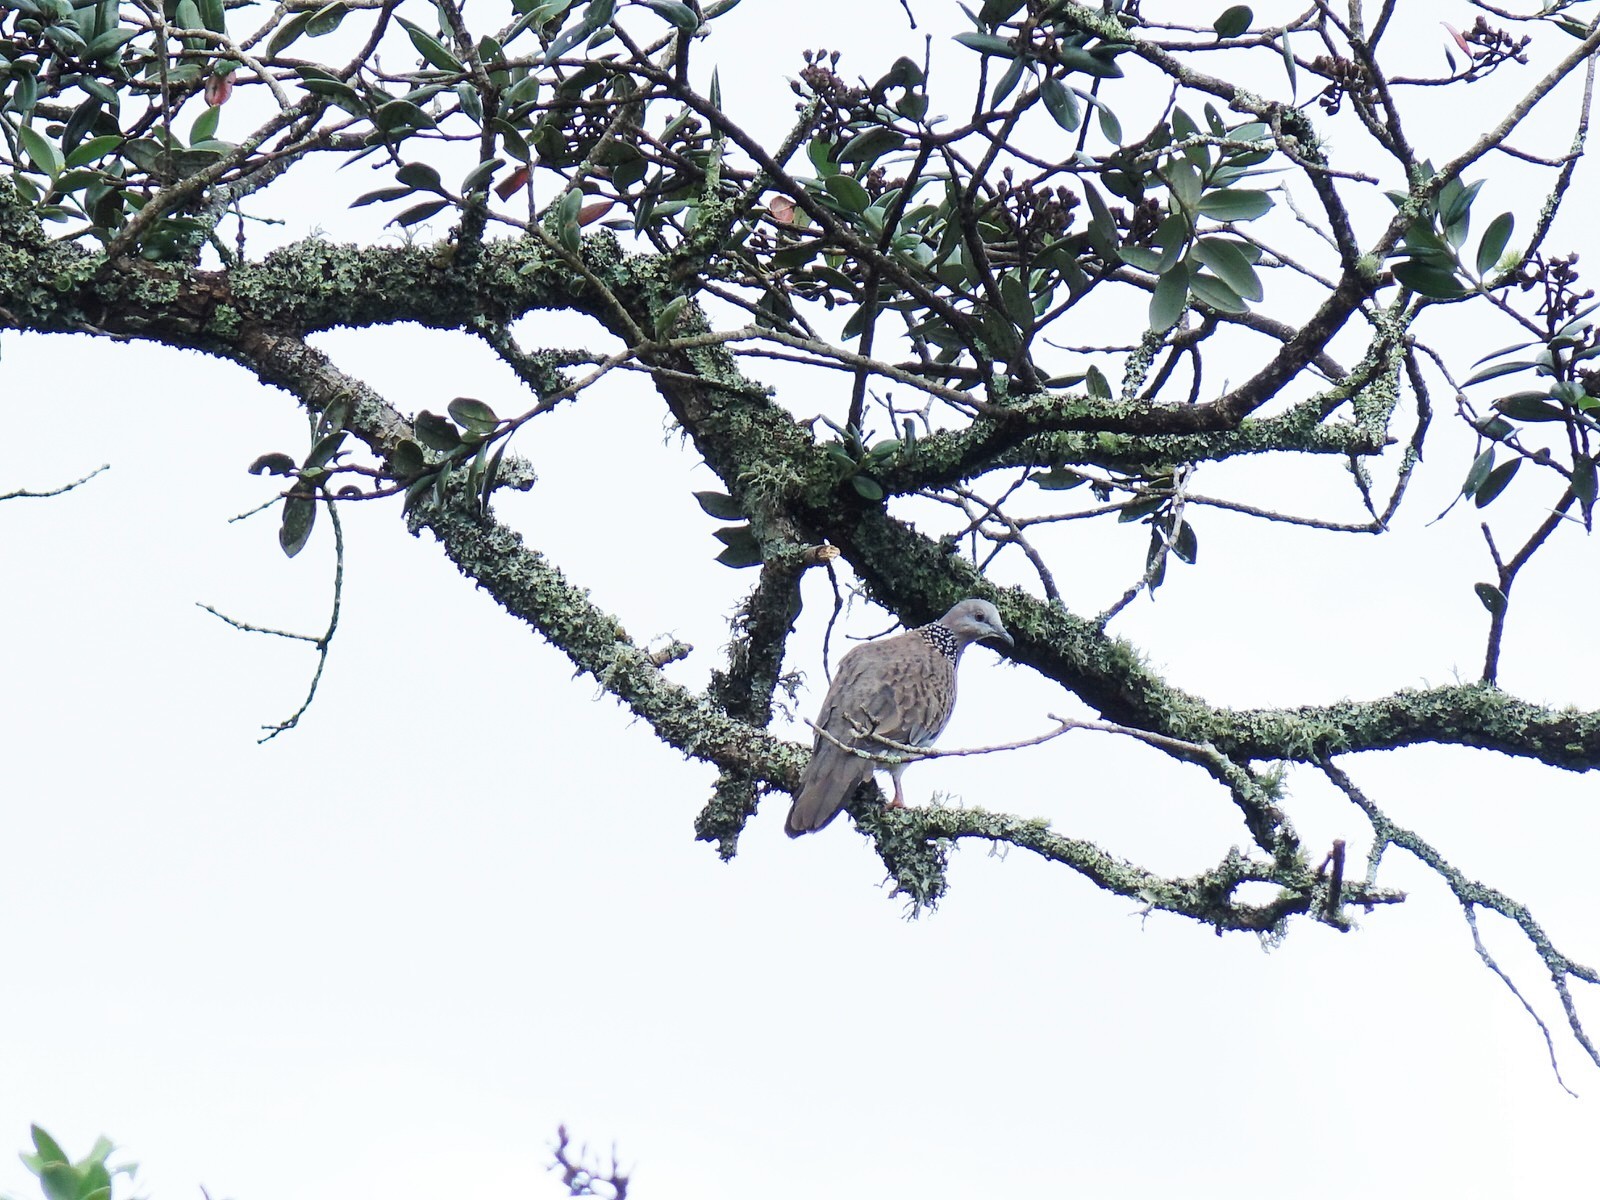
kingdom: Animalia
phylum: Chordata
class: Aves
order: Columbiformes
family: Columbidae
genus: Spilopelia
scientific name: Spilopelia chinensis
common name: Spotted dove
